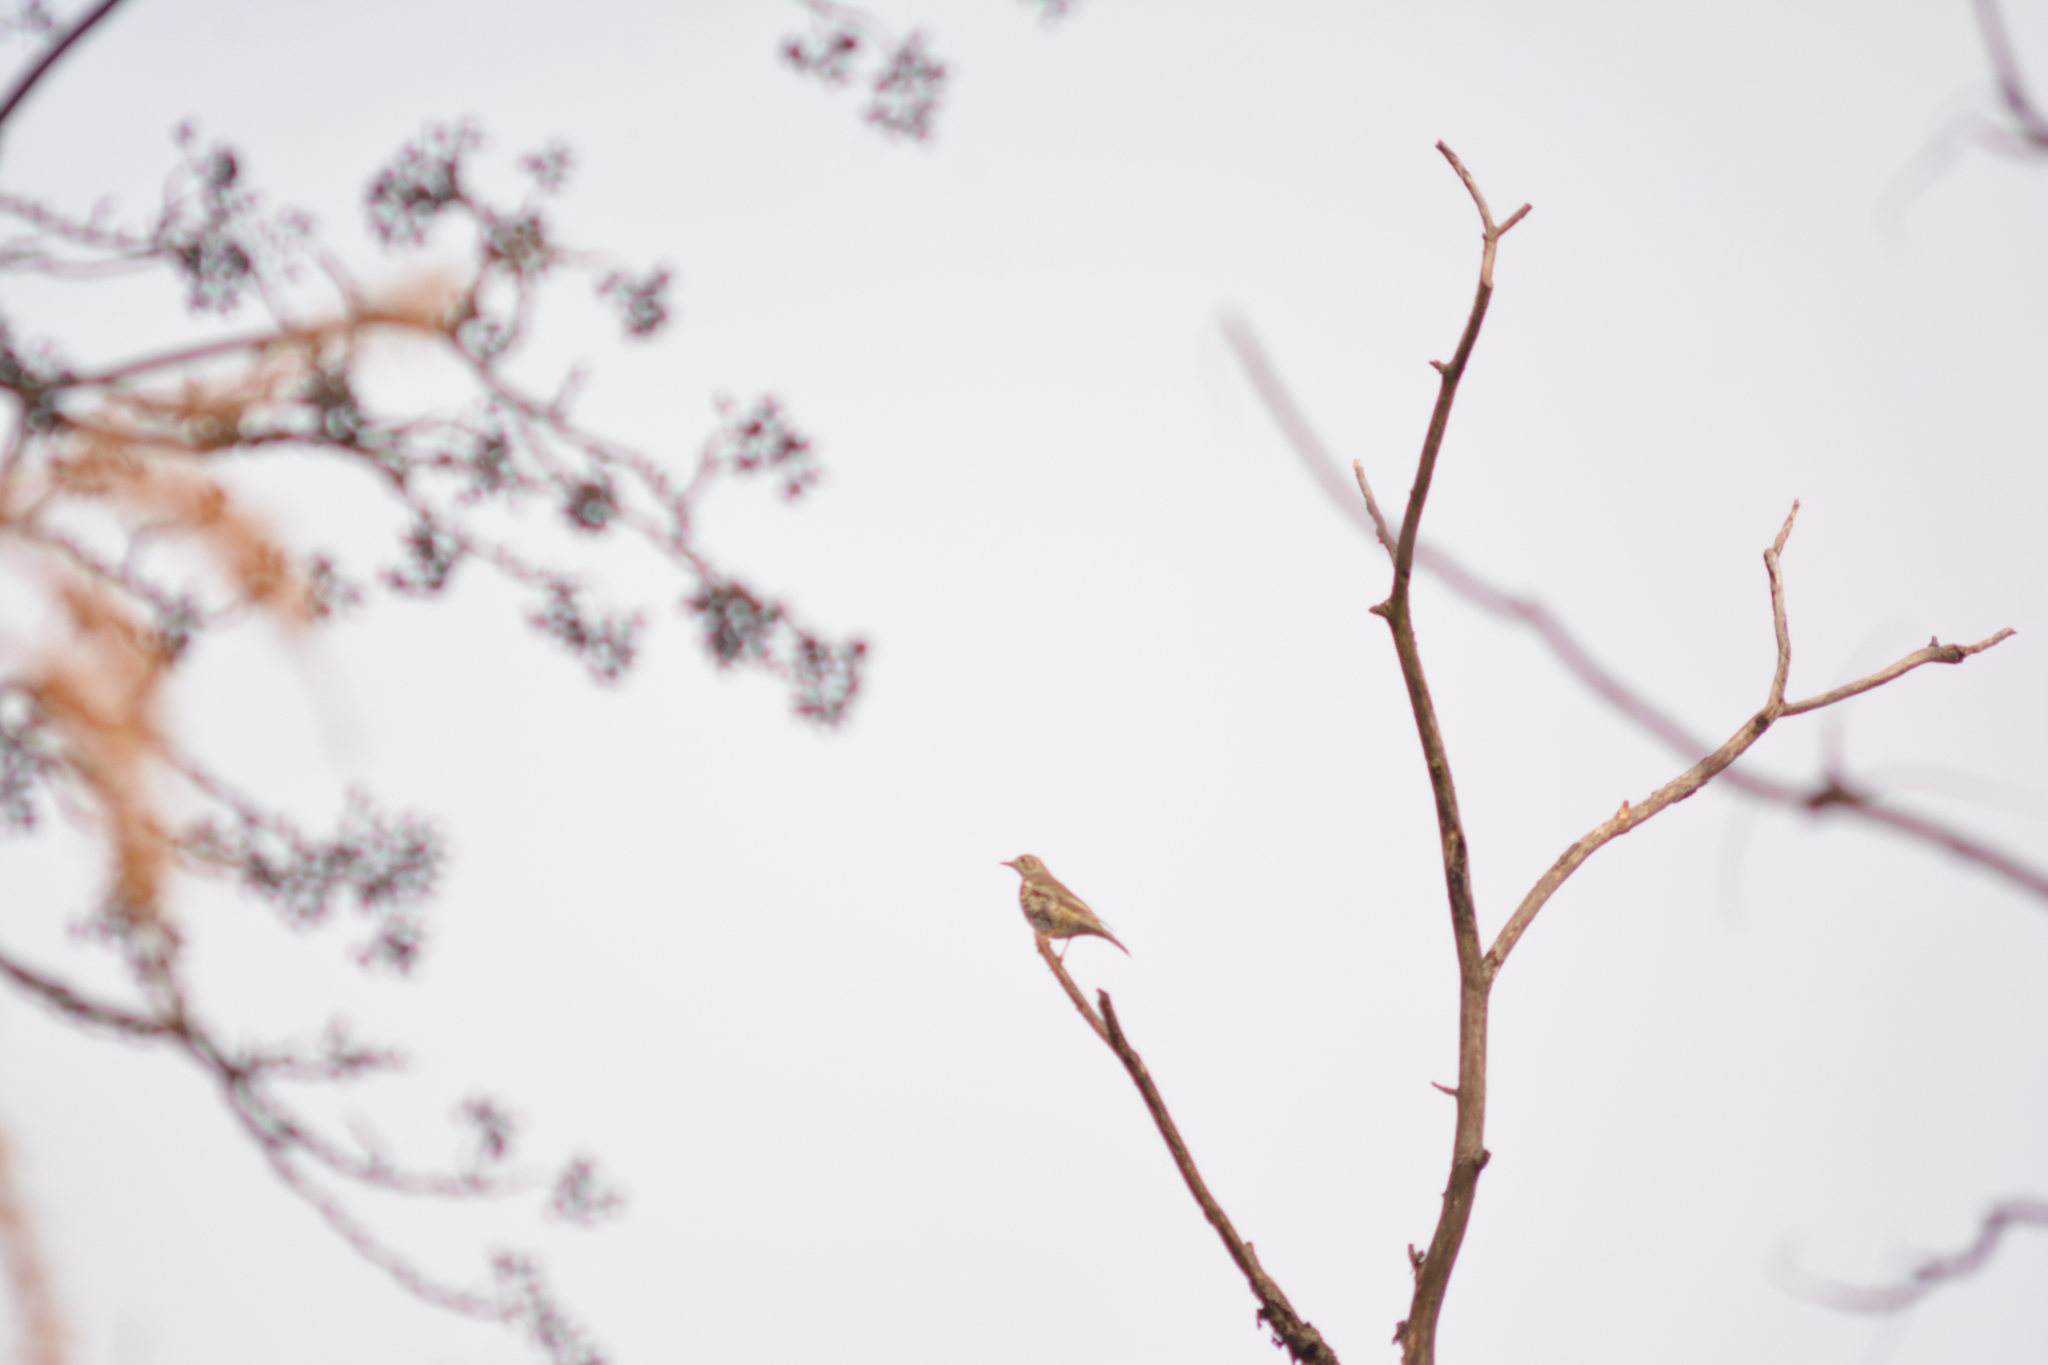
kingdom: Animalia
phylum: Chordata
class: Aves
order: Passeriformes
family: Turdidae
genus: Turdus
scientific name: Turdus viscivorus
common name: Mistle thrush
